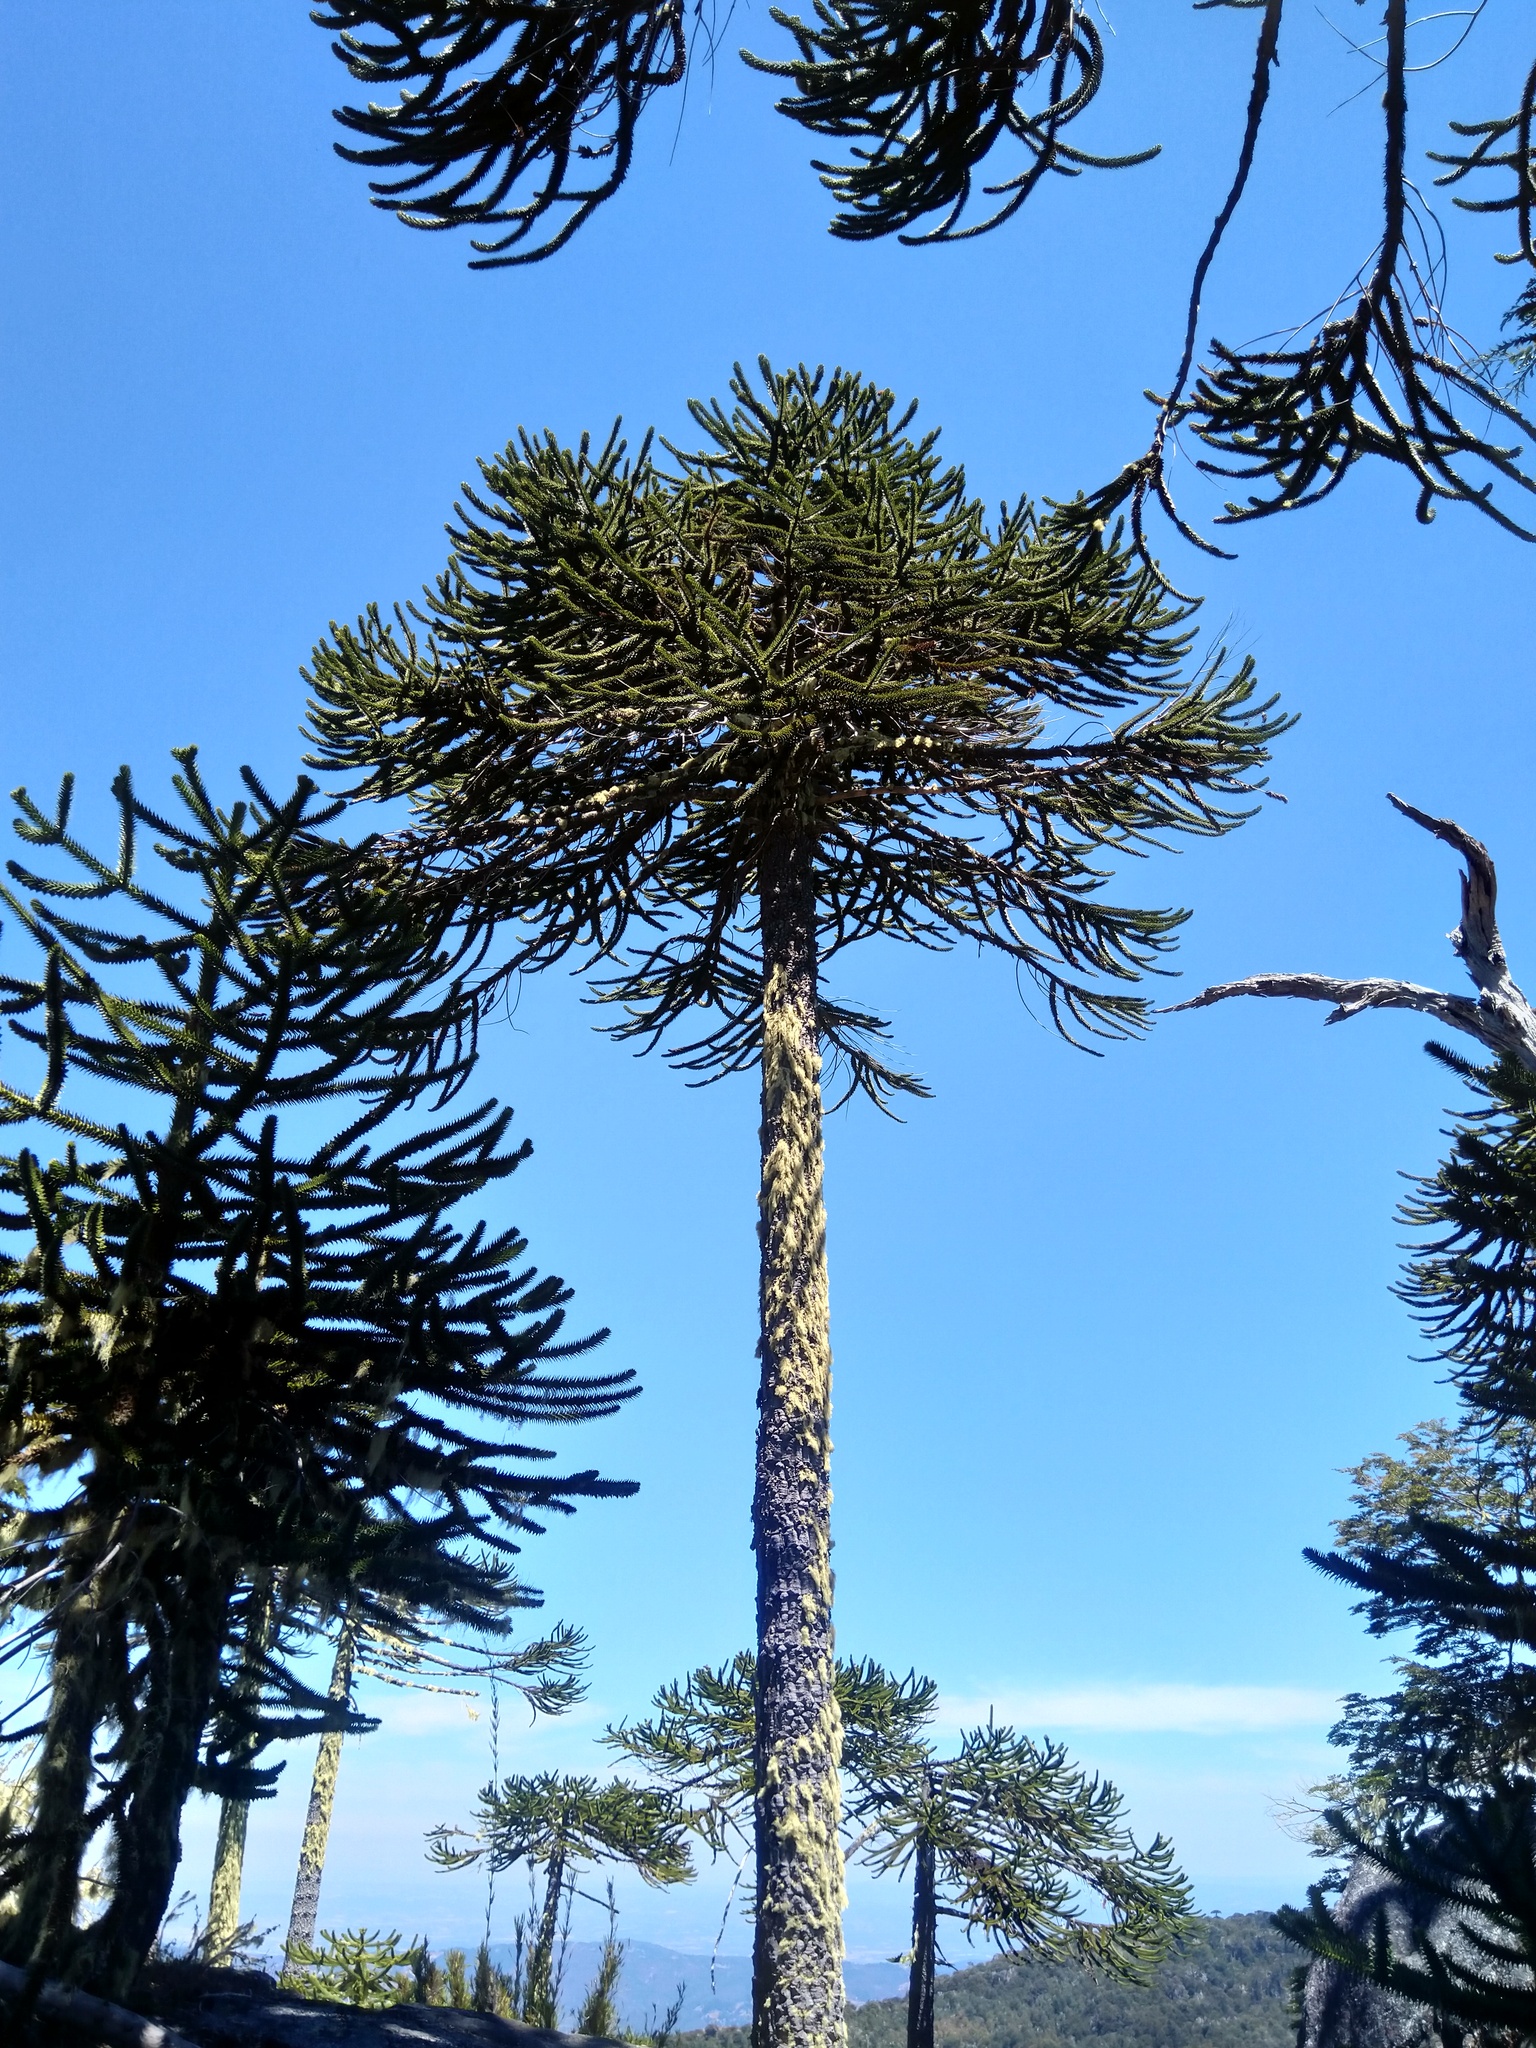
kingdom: Plantae
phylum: Tracheophyta
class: Pinopsida
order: Pinales
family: Araucariaceae
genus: Araucaria
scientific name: Araucaria araucana
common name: Monkey-puzzle
